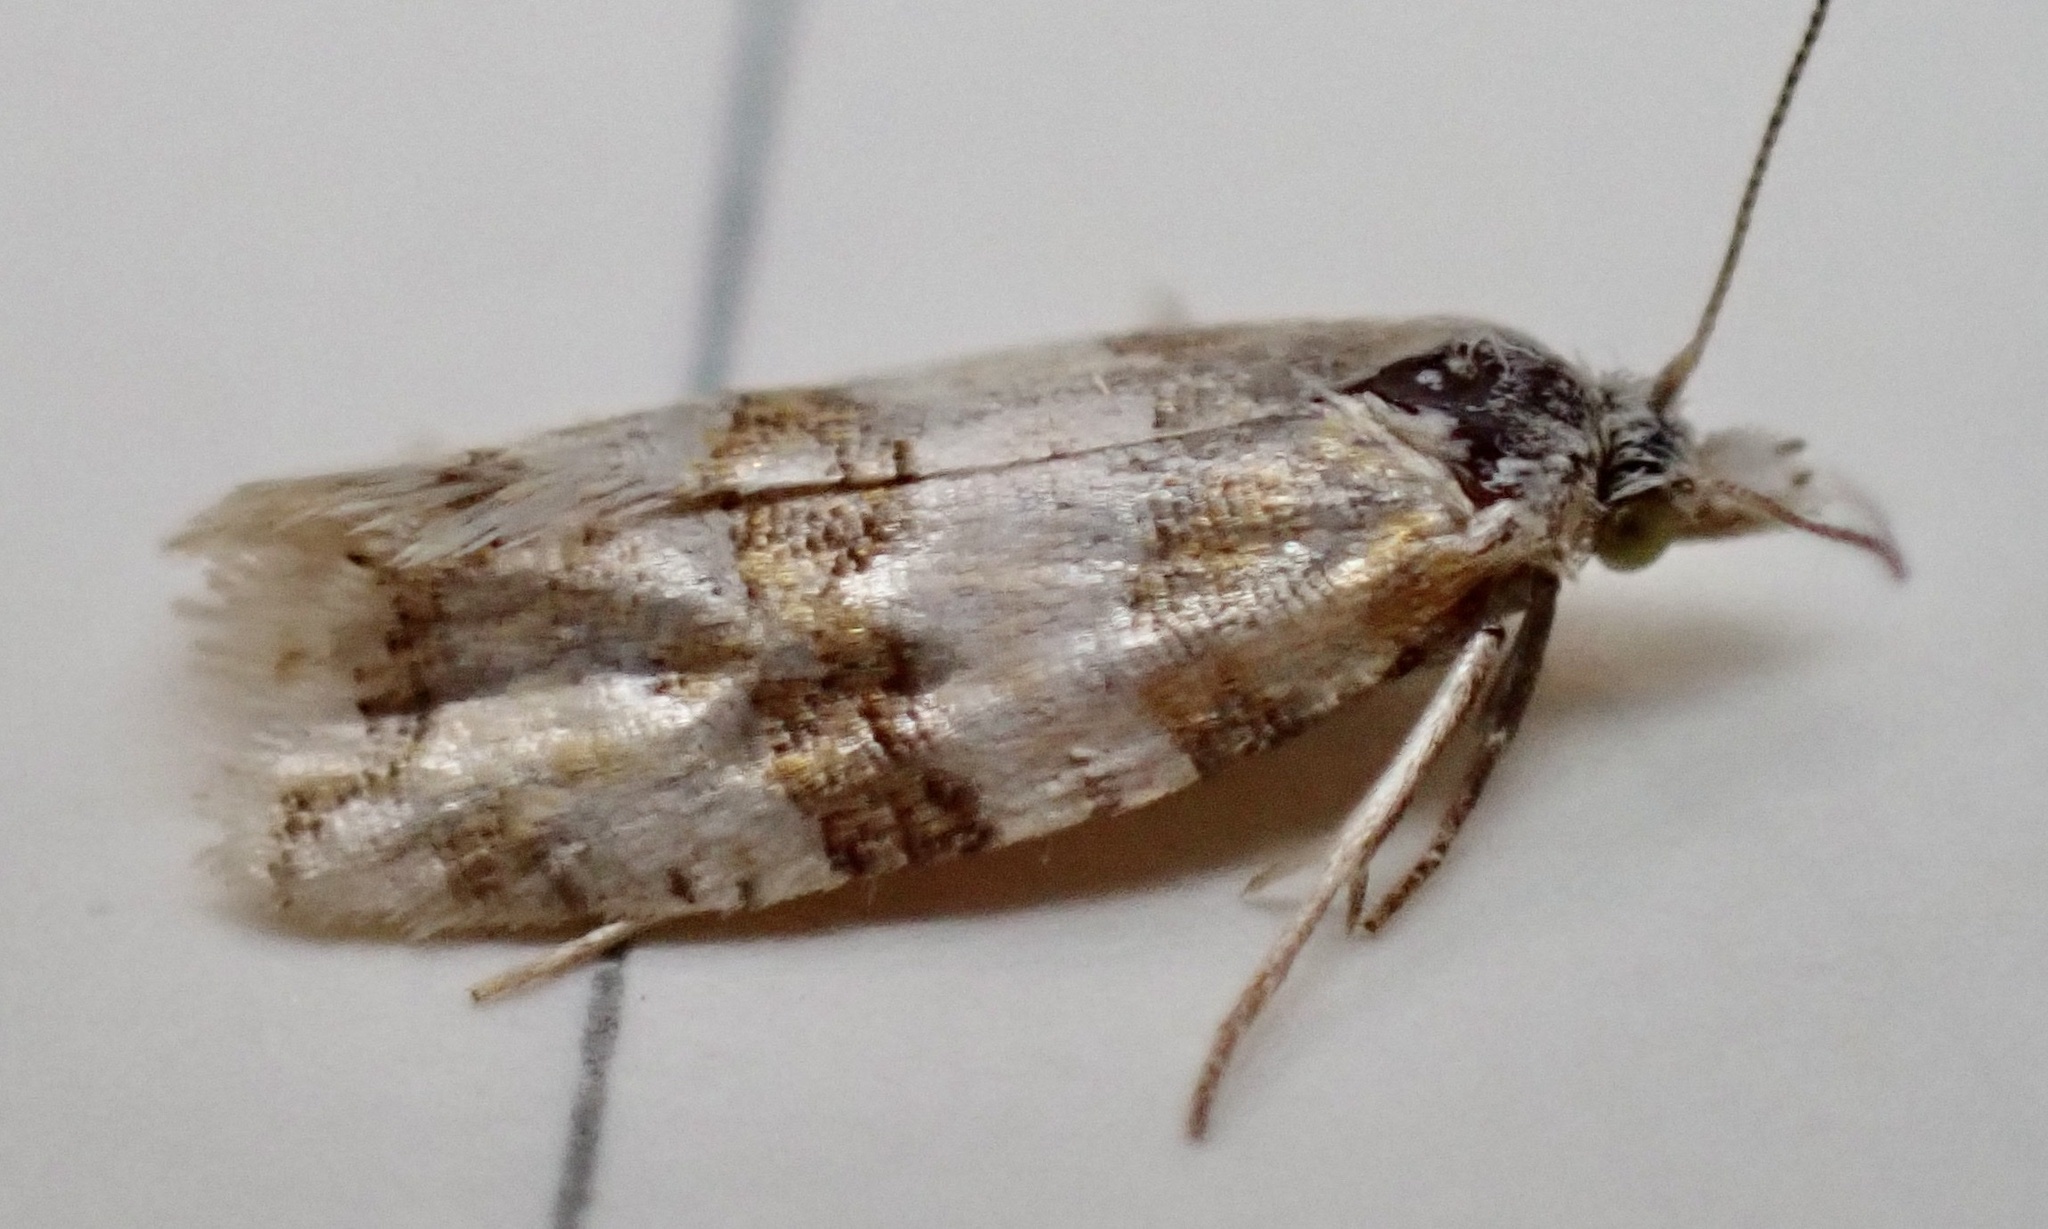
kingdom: Animalia
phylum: Arthropoda
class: Insecta
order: Lepidoptera
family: Tortricidae
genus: Aethes
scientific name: Aethes argentilimitana
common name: Silver-bordered aethes
